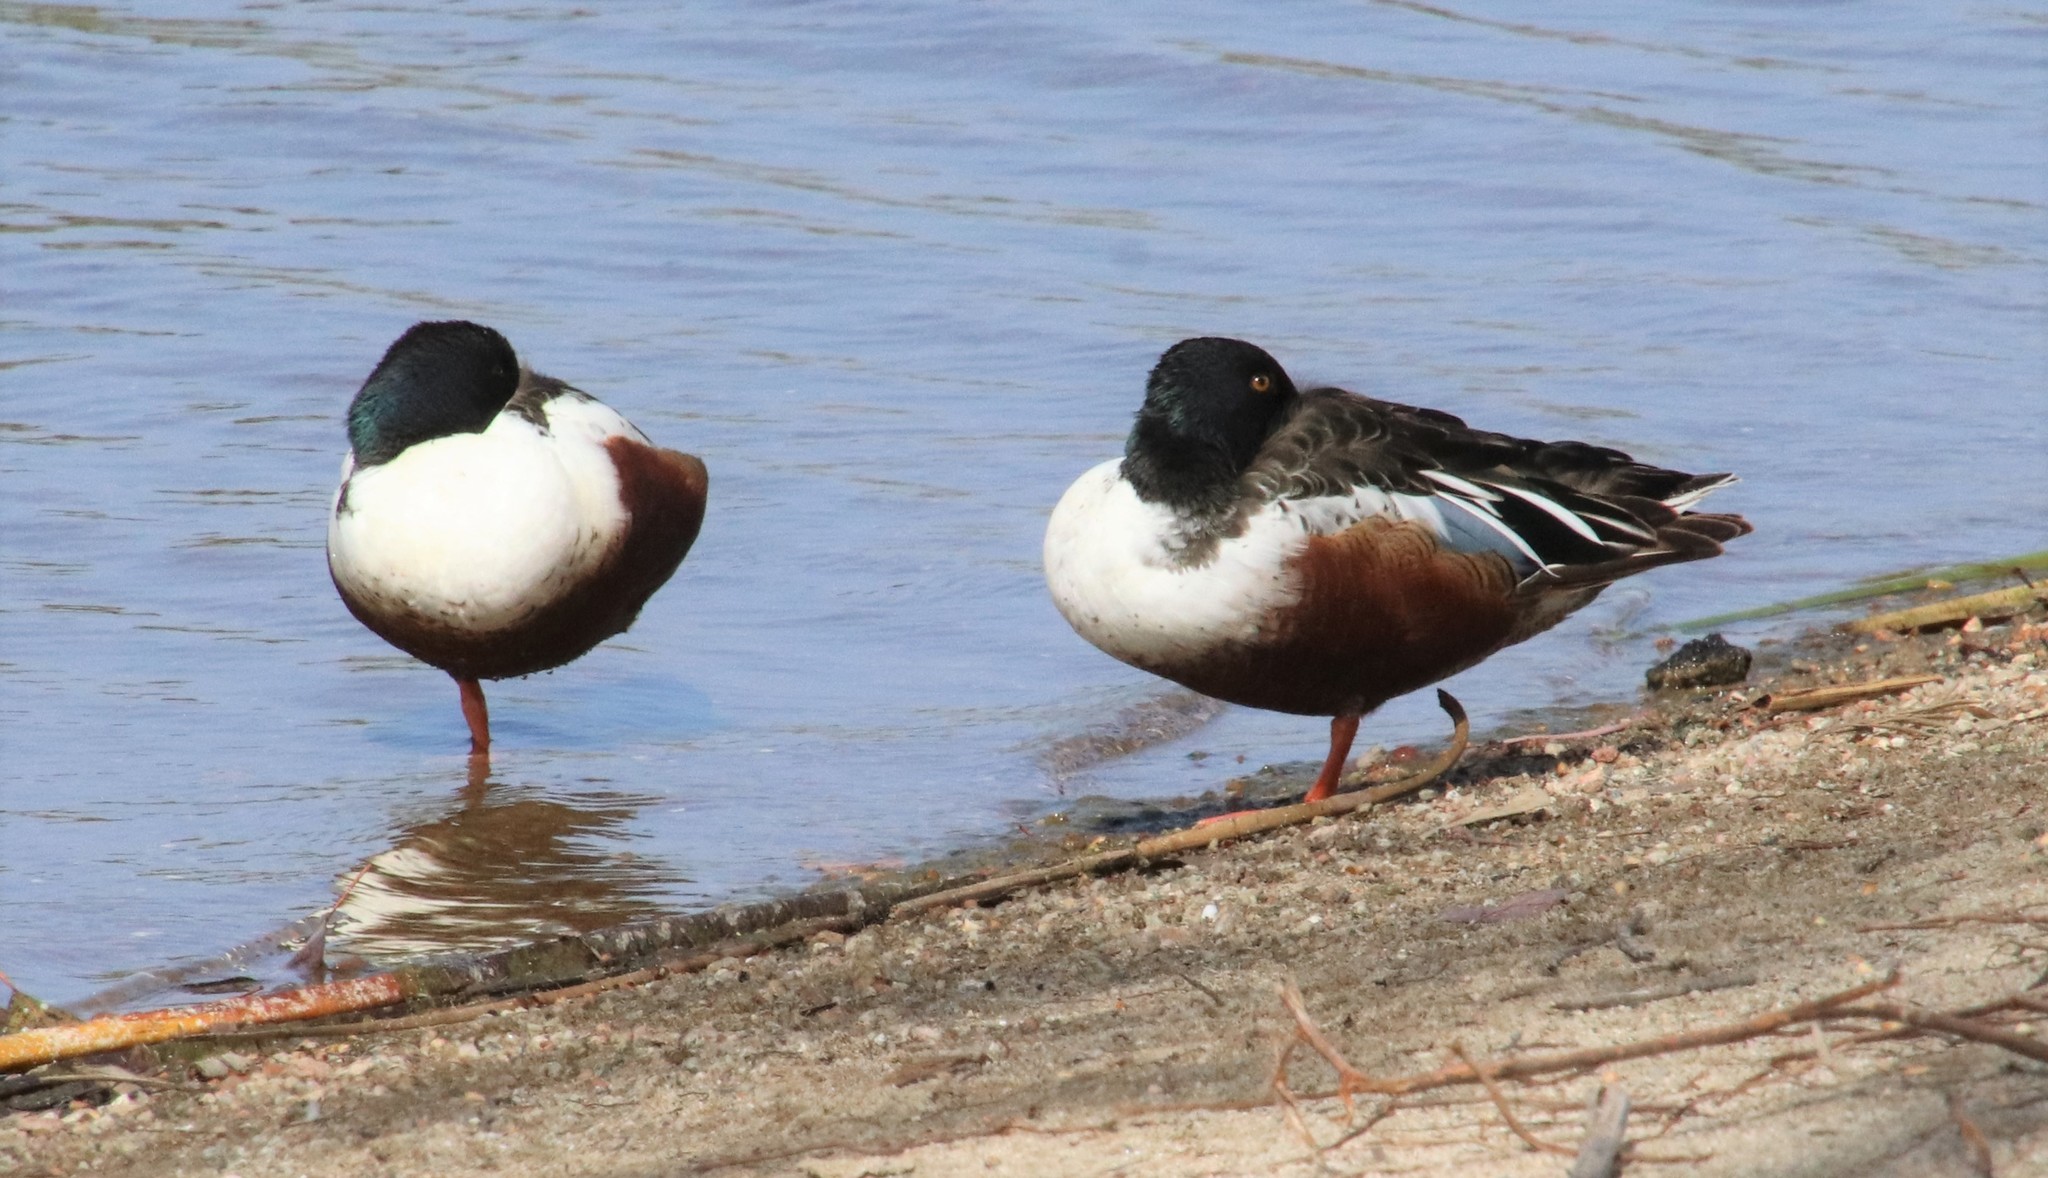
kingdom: Animalia
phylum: Chordata
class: Aves
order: Anseriformes
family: Anatidae
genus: Spatula
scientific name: Spatula clypeata
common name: Northern shoveler
